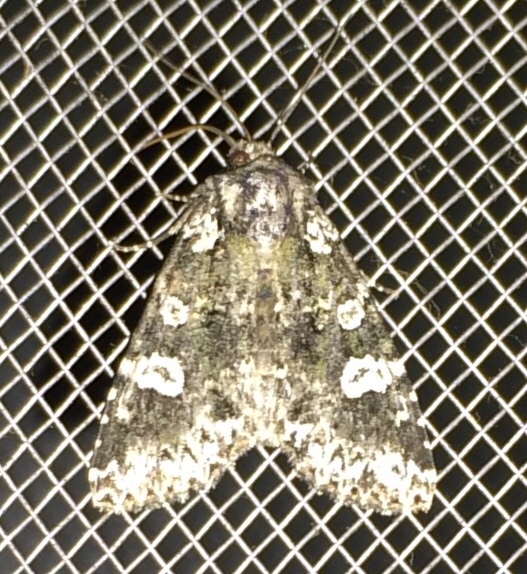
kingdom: Animalia
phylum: Arthropoda
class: Insecta
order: Lepidoptera
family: Noctuidae
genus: Melanchra
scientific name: Melanchra adjuncta
